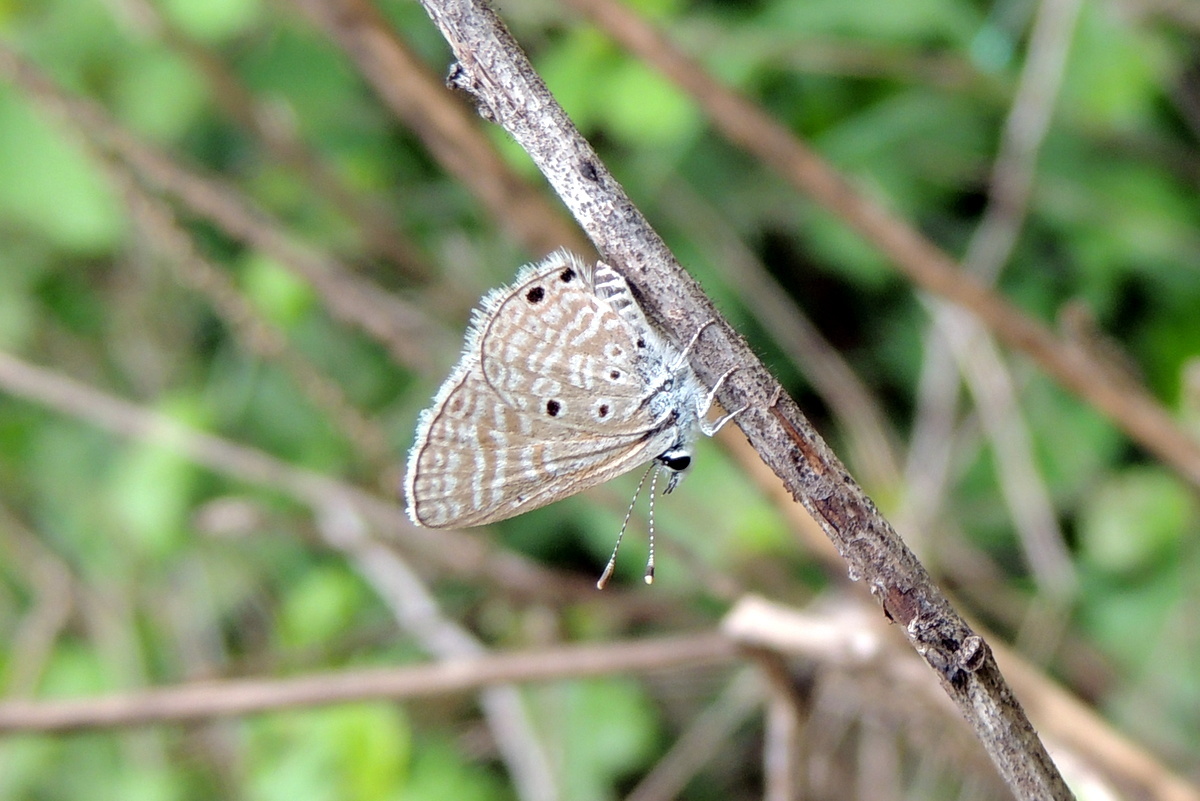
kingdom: Animalia
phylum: Arthropoda
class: Insecta
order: Lepidoptera
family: Lycaenidae
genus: Azanus
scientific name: Azanus uranus
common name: Dull babul blue
